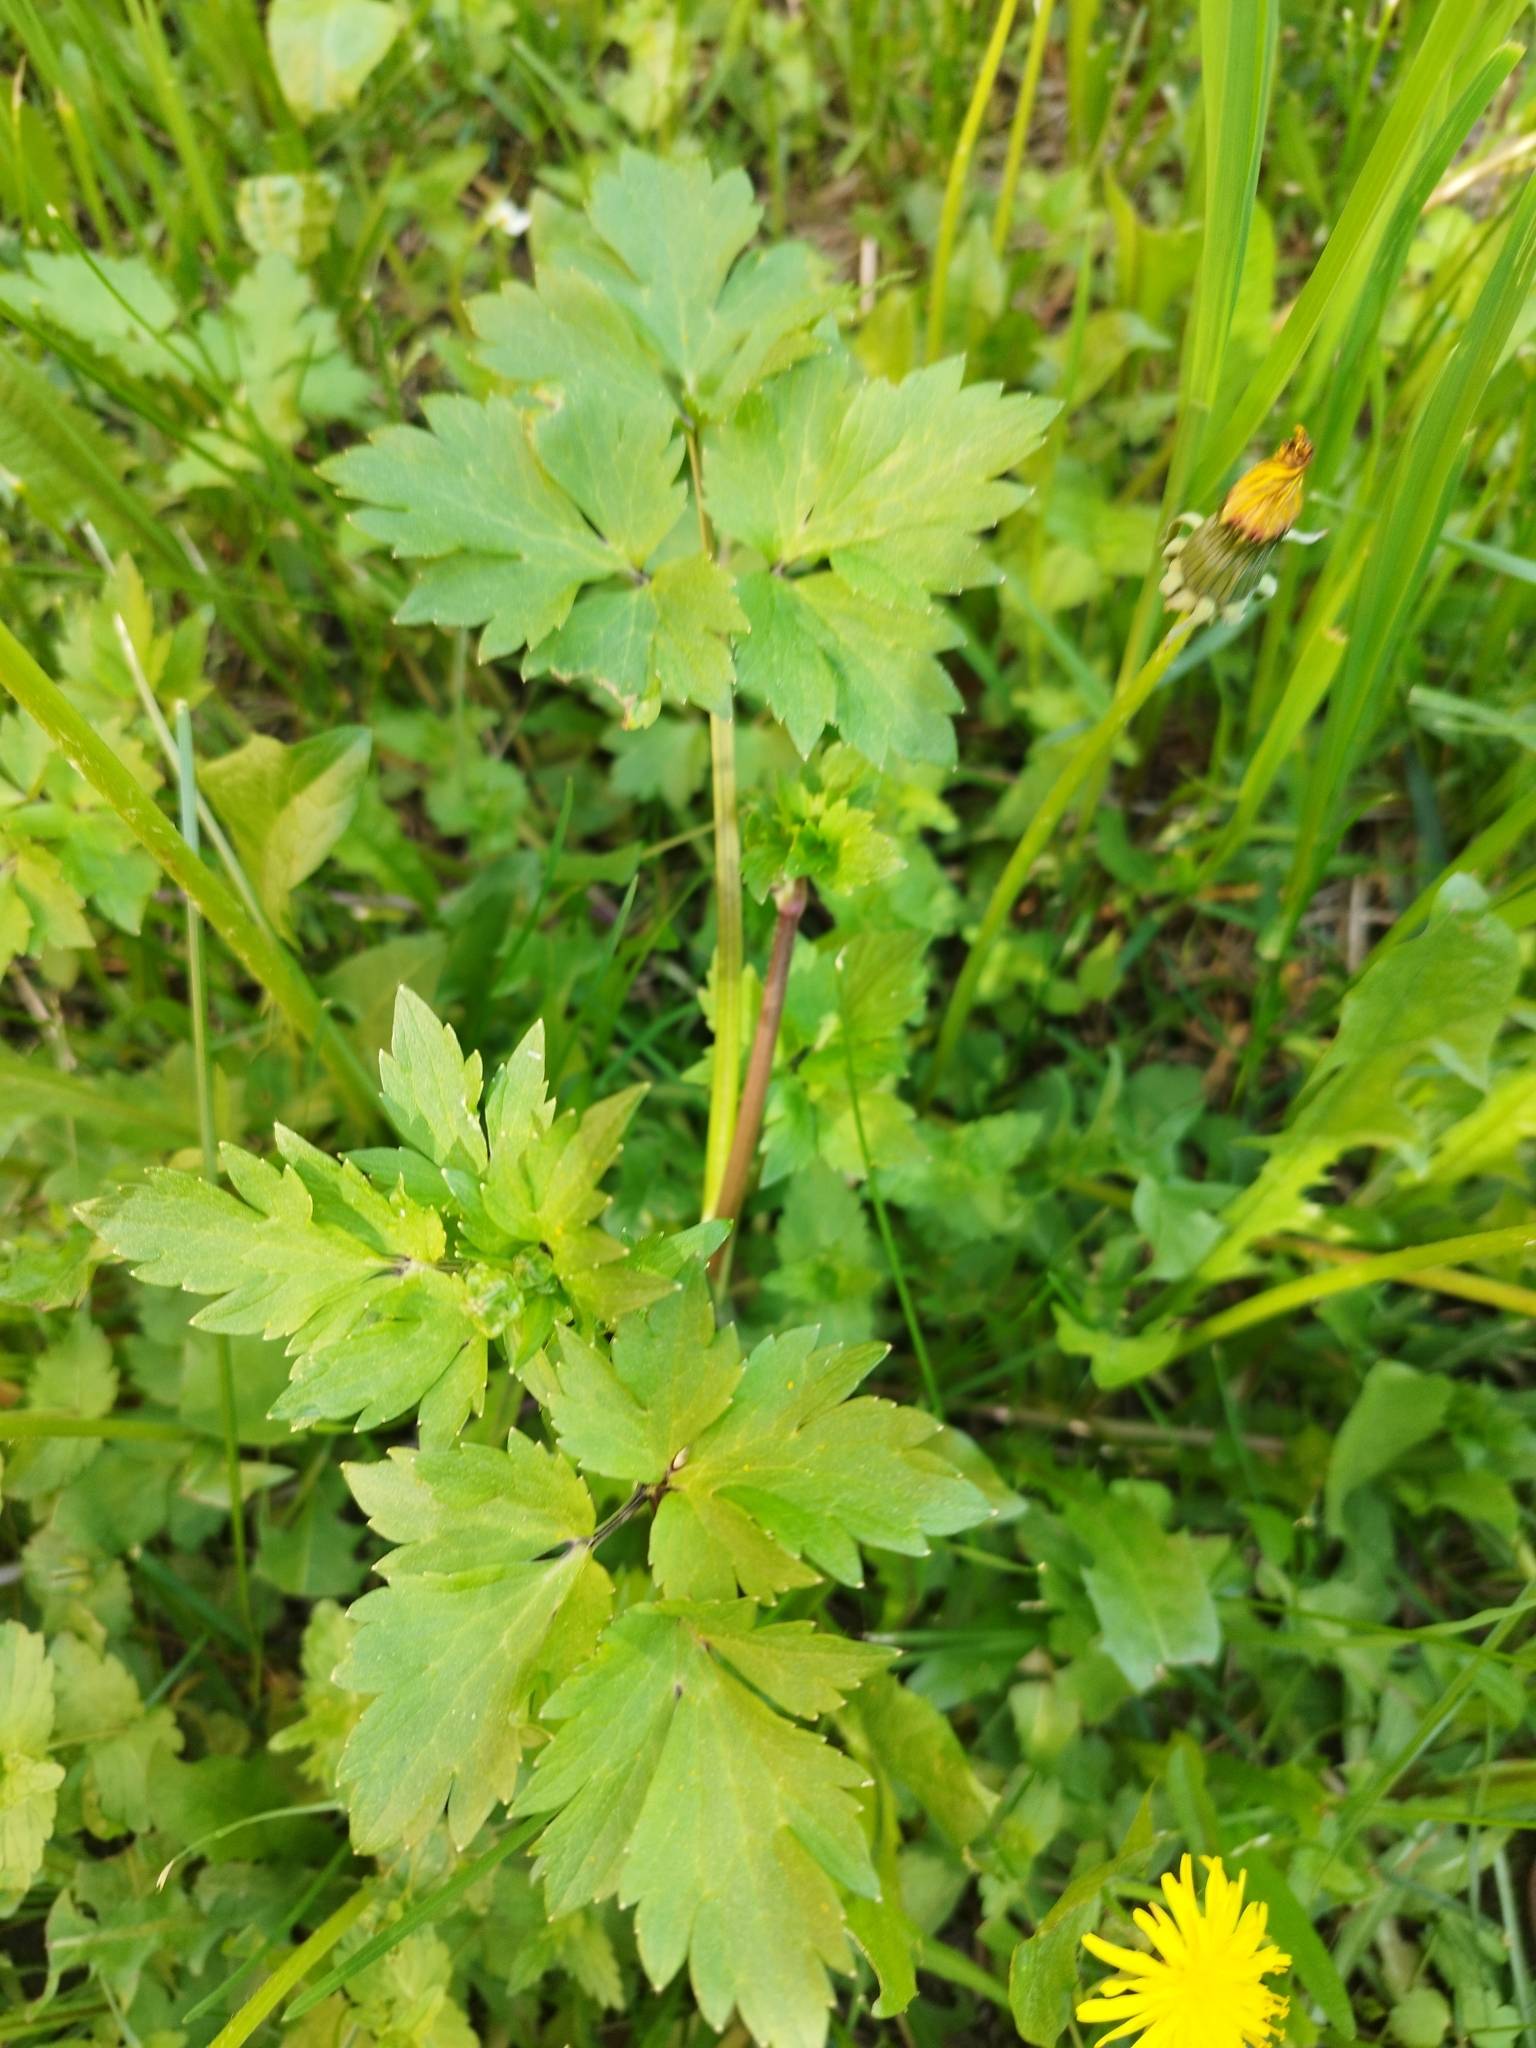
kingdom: Plantae
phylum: Tracheophyta
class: Magnoliopsida
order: Ranunculales
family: Ranunculaceae
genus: Ranunculus
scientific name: Ranunculus repens
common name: Creeping buttercup
